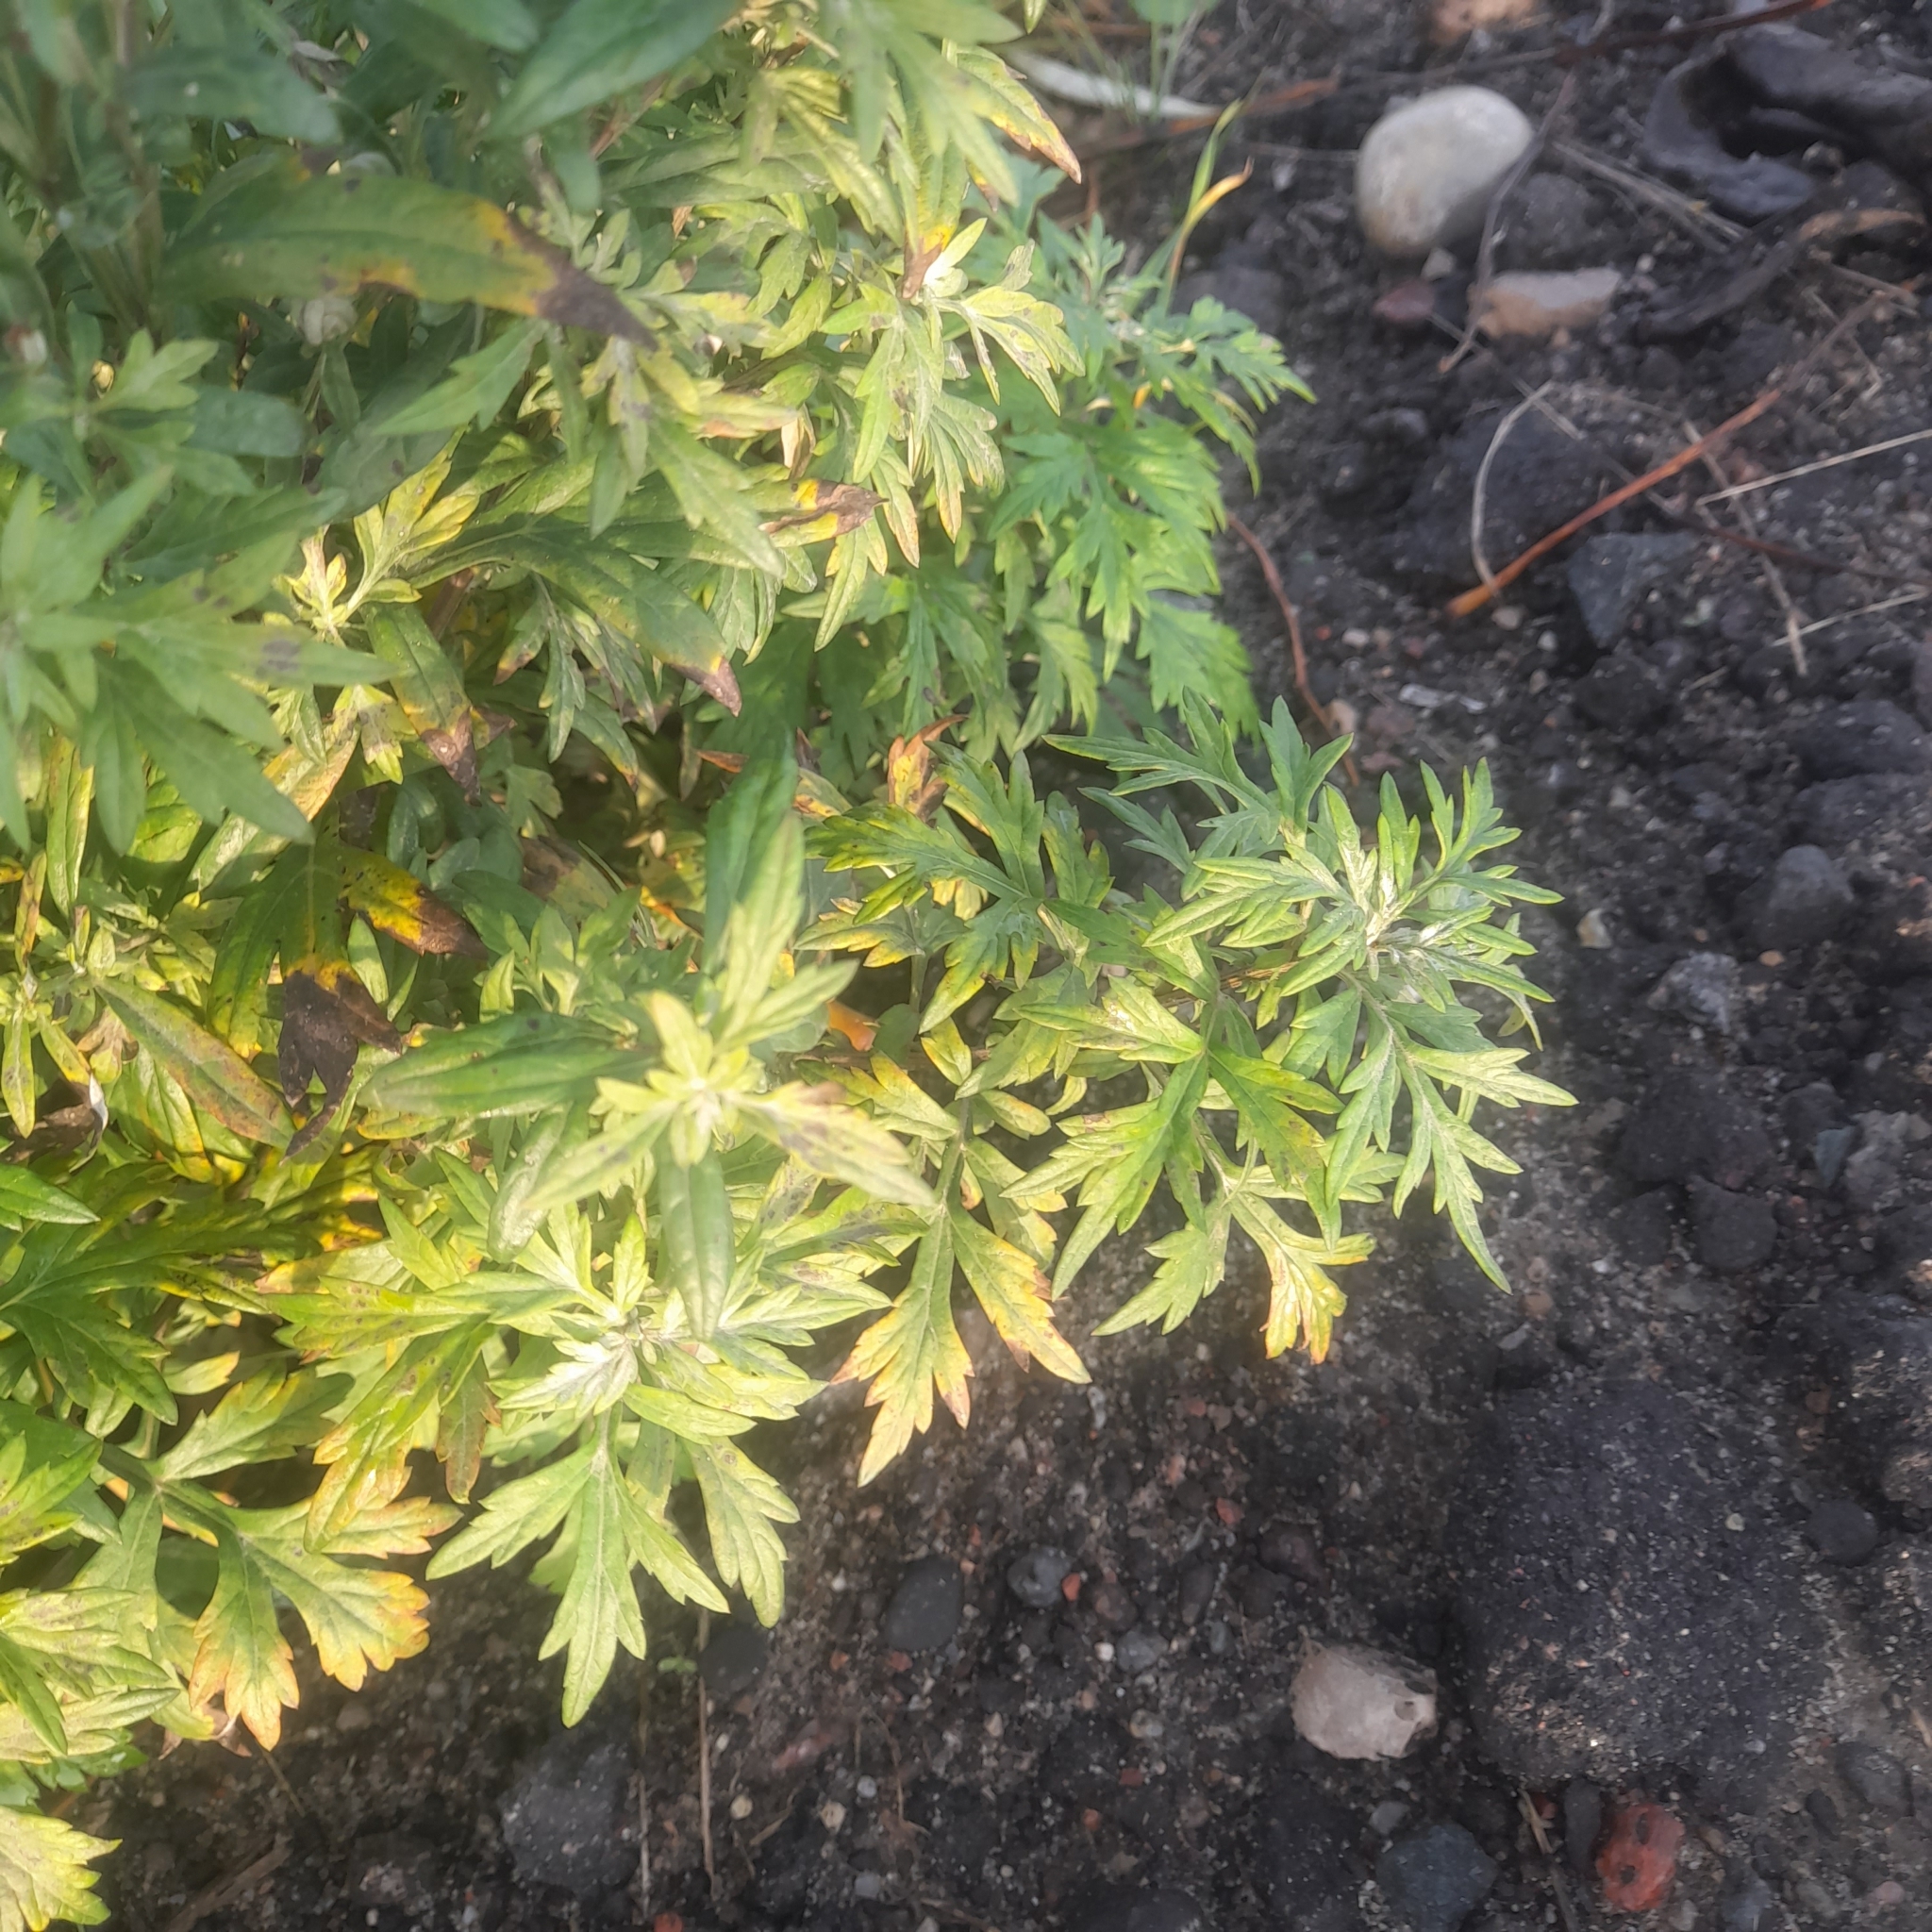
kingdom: Plantae
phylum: Tracheophyta
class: Magnoliopsida
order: Asterales
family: Asteraceae
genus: Artemisia
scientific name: Artemisia vulgaris
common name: Mugwort
